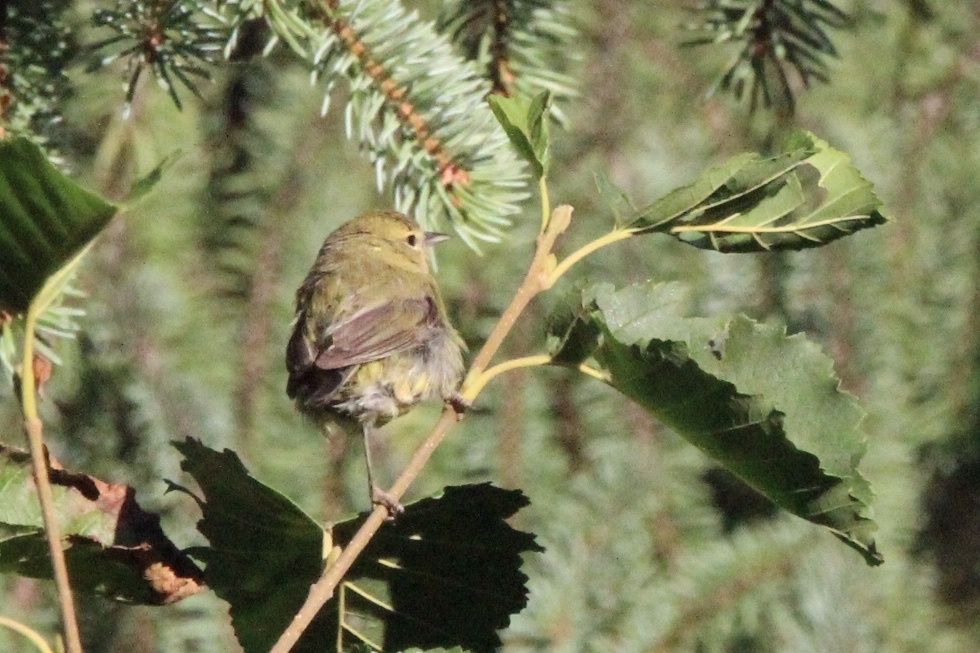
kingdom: Animalia
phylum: Chordata
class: Aves
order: Passeriformes
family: Parulidae
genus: Leiothlypis
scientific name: Leiothlypis celata
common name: Orange-crowned warbler
